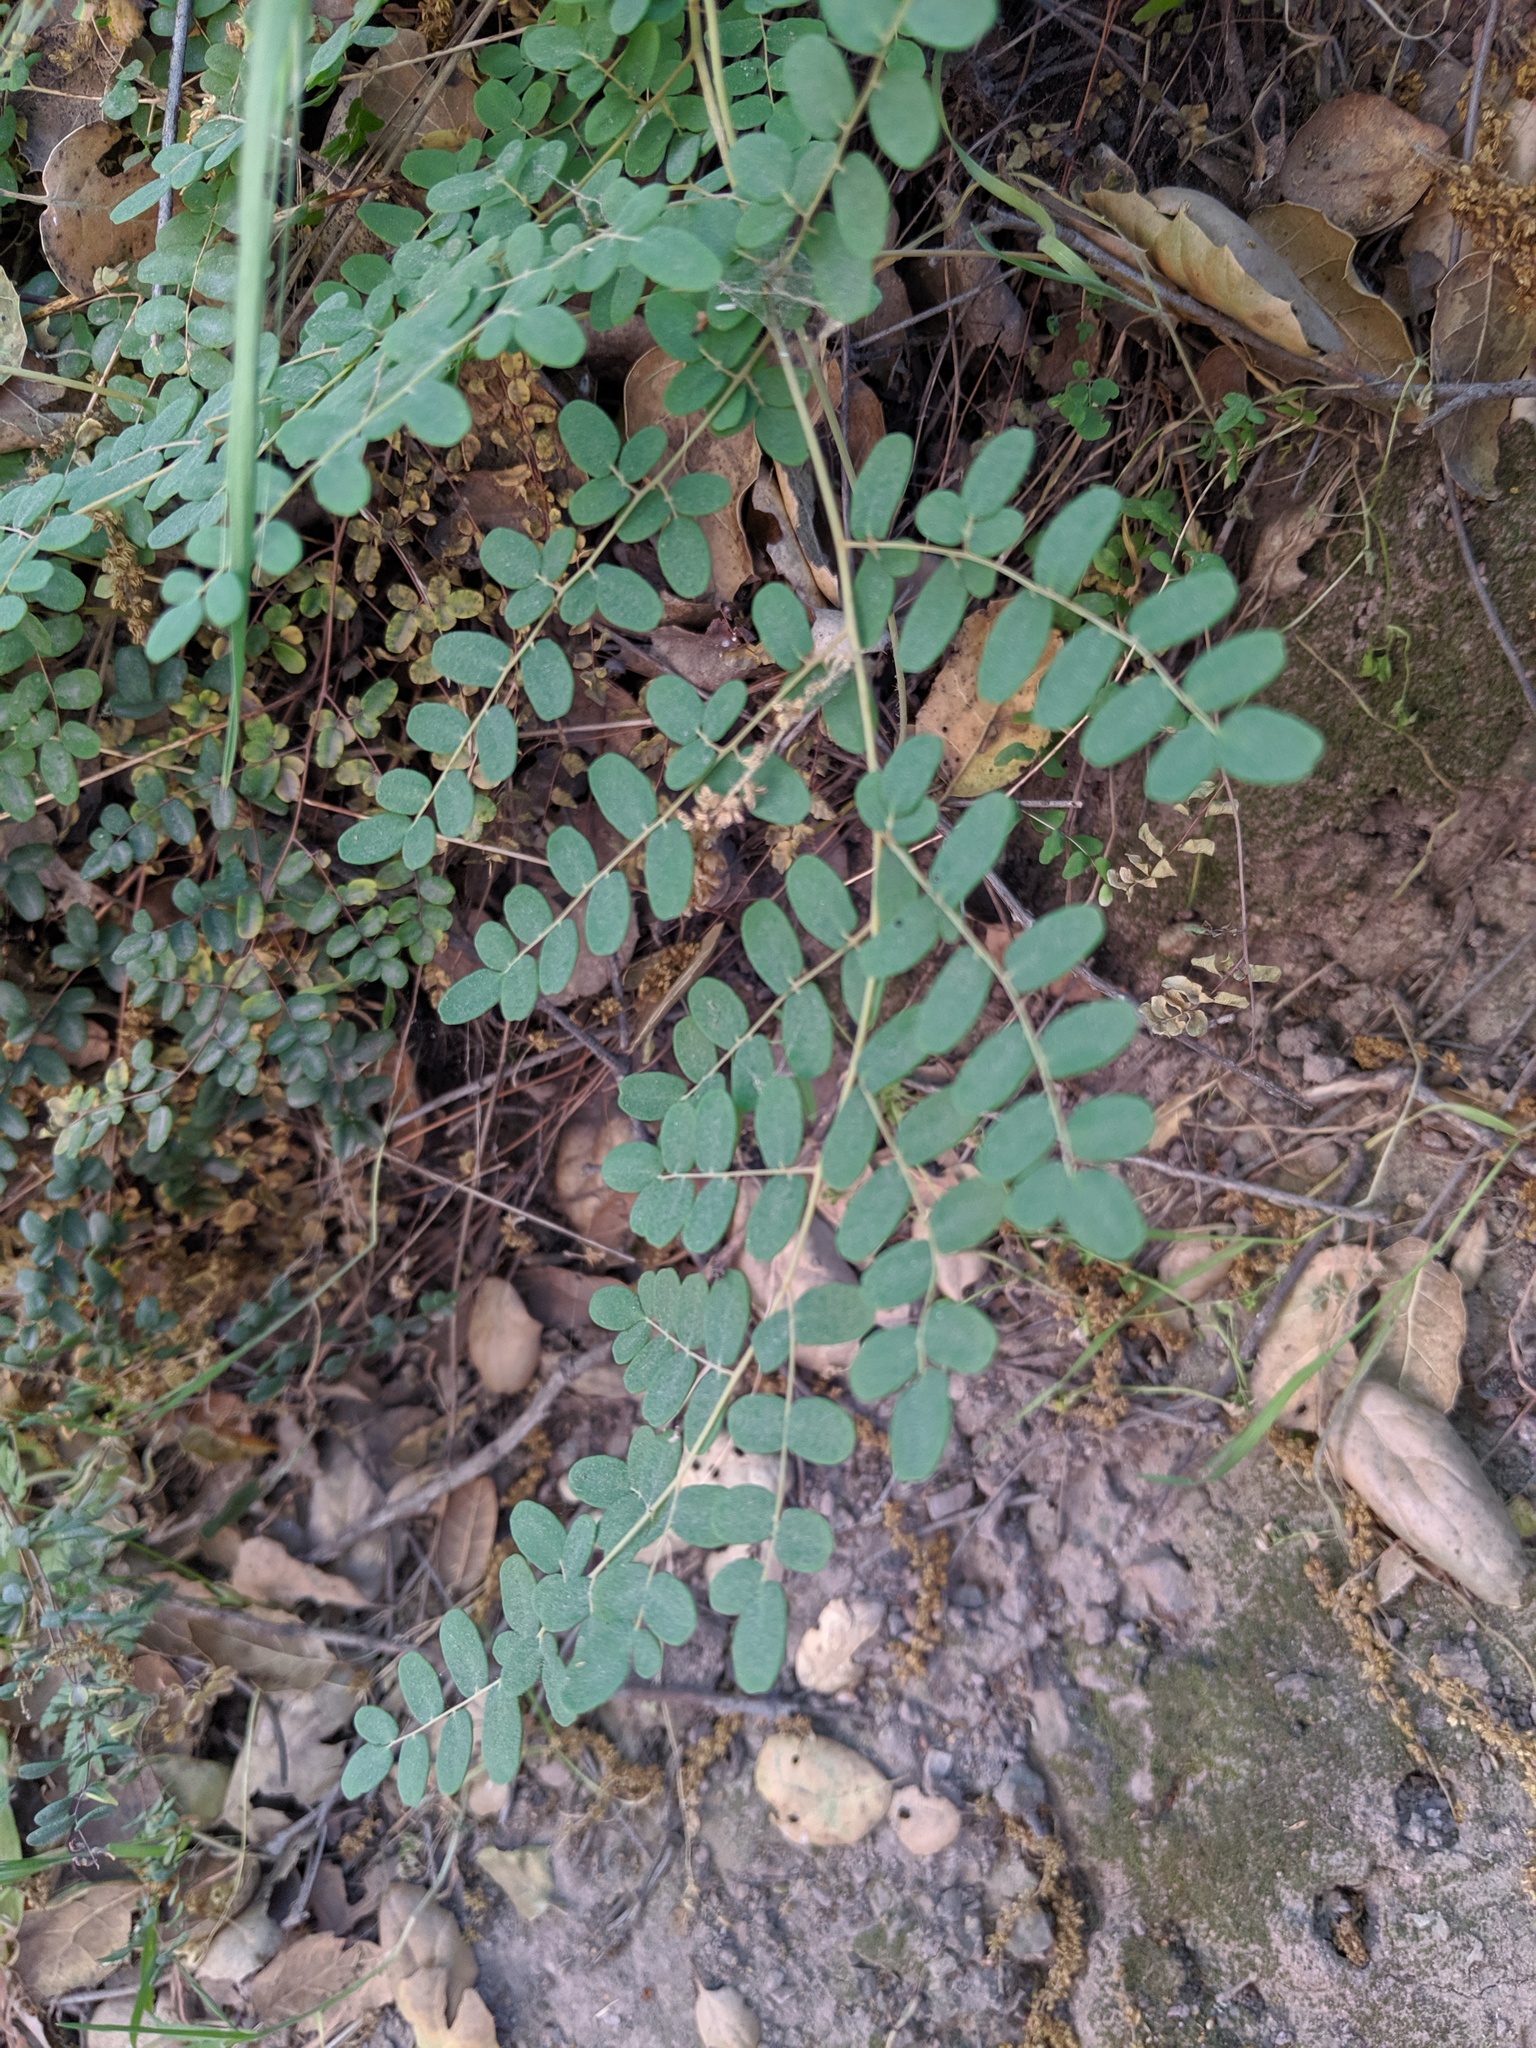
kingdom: Plantae
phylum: Tracheophyta
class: Polypodiopsida
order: Polypodiales
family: Pteridaceae
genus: Pellaea
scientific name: Pellaea andromedifolia
